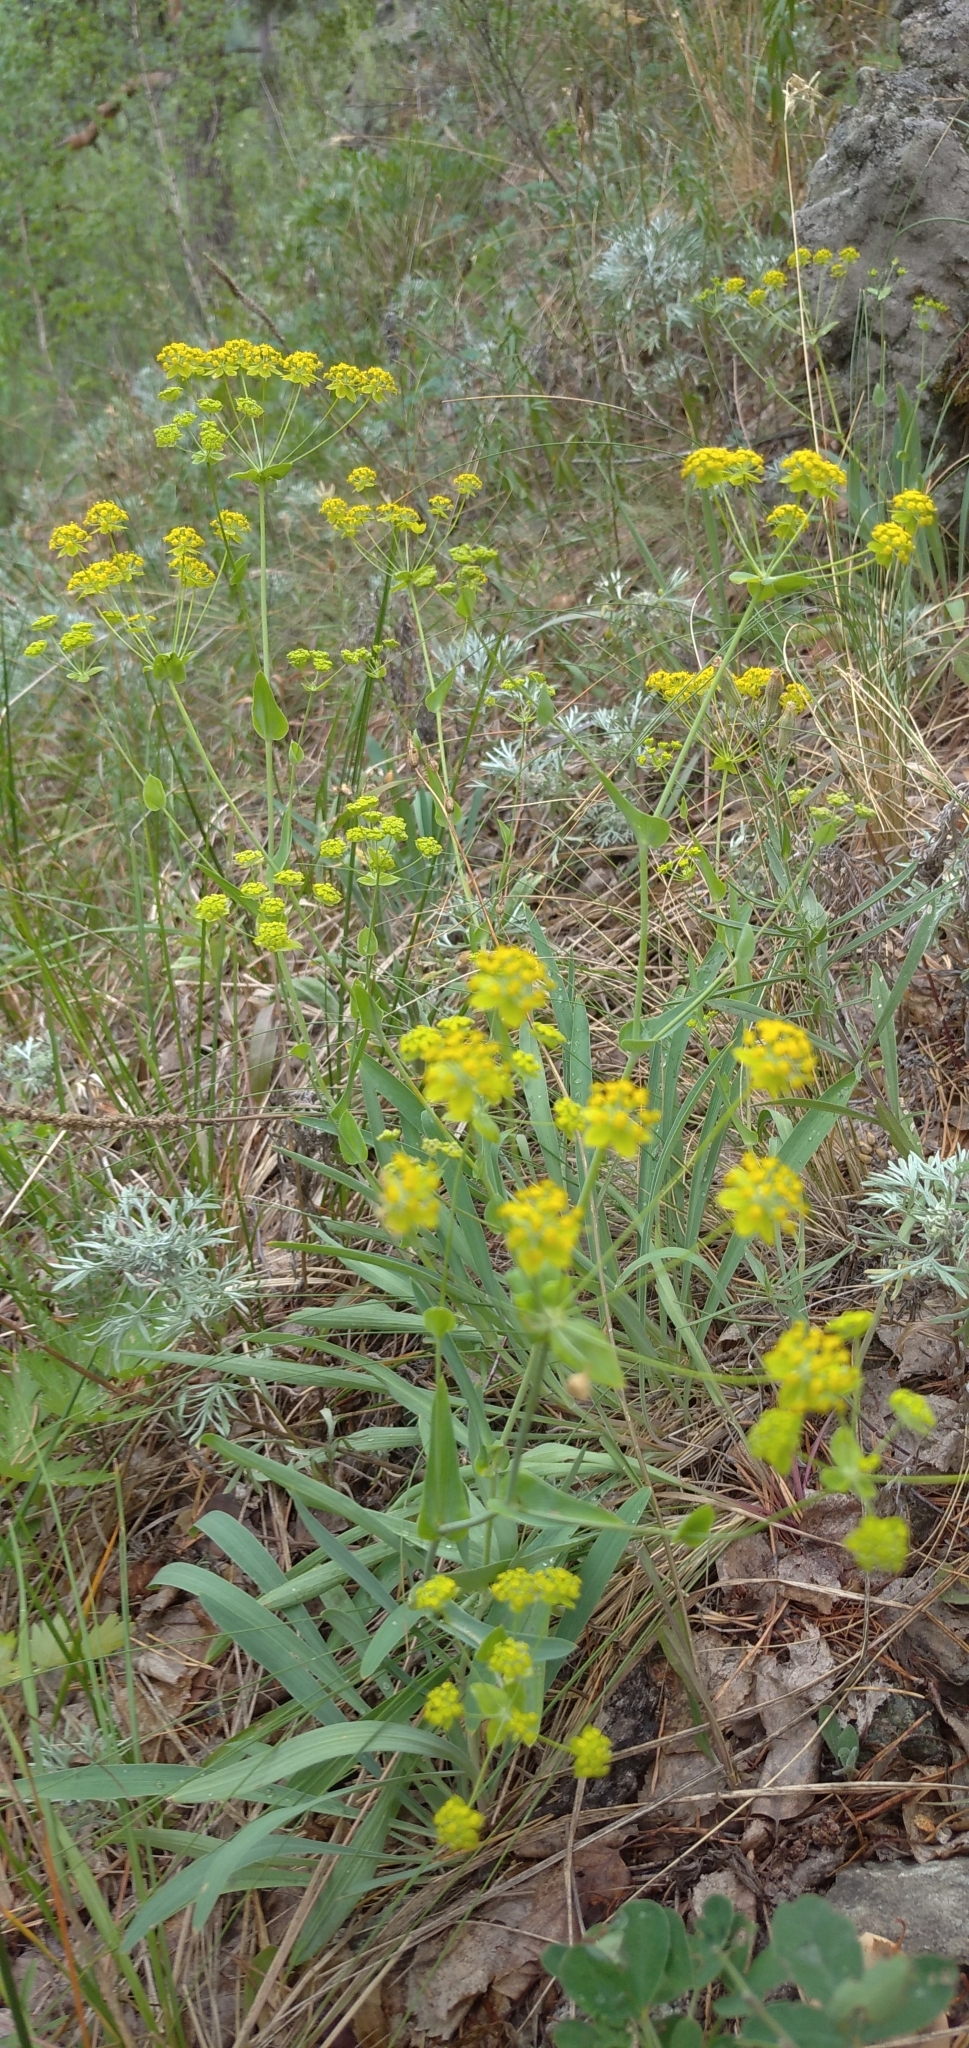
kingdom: Plantae
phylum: Tracheophyta
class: Magnoliopsida
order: Apiales
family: Apiaceae
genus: Bupleurum
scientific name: Bupleurum multinerve
